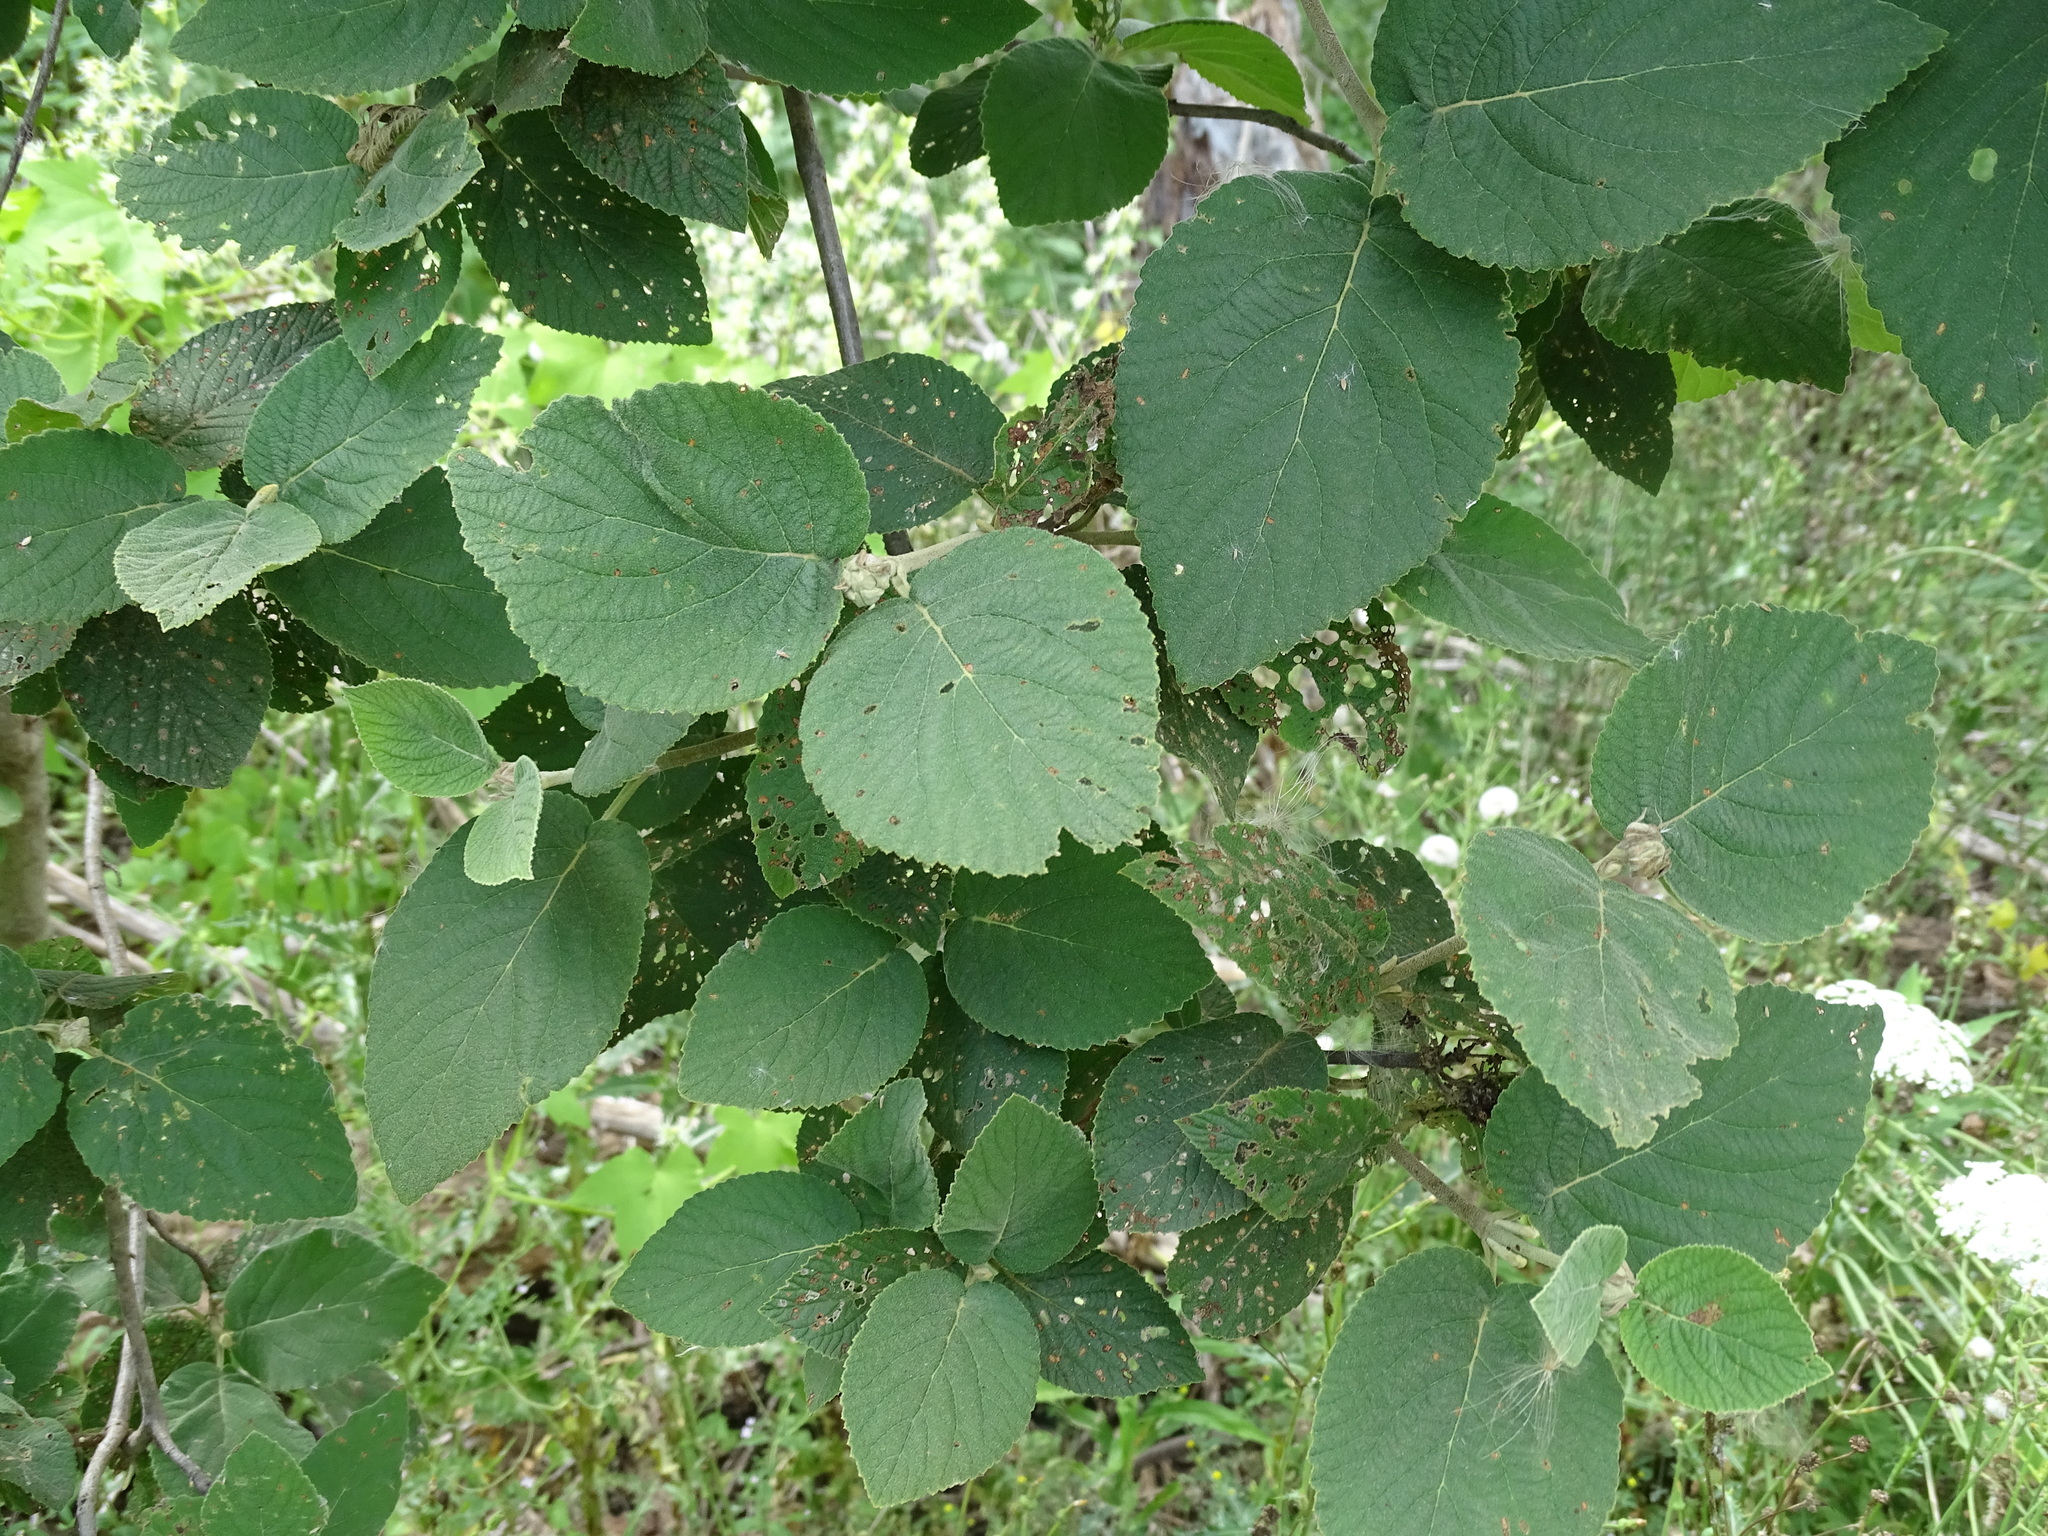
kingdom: Plantae
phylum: Tracheophyta
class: Magnoliopsida
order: Dipsacales
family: Viburnaceae
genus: Viburnum
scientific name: Viburnum lantana
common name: Wayfaring tree
